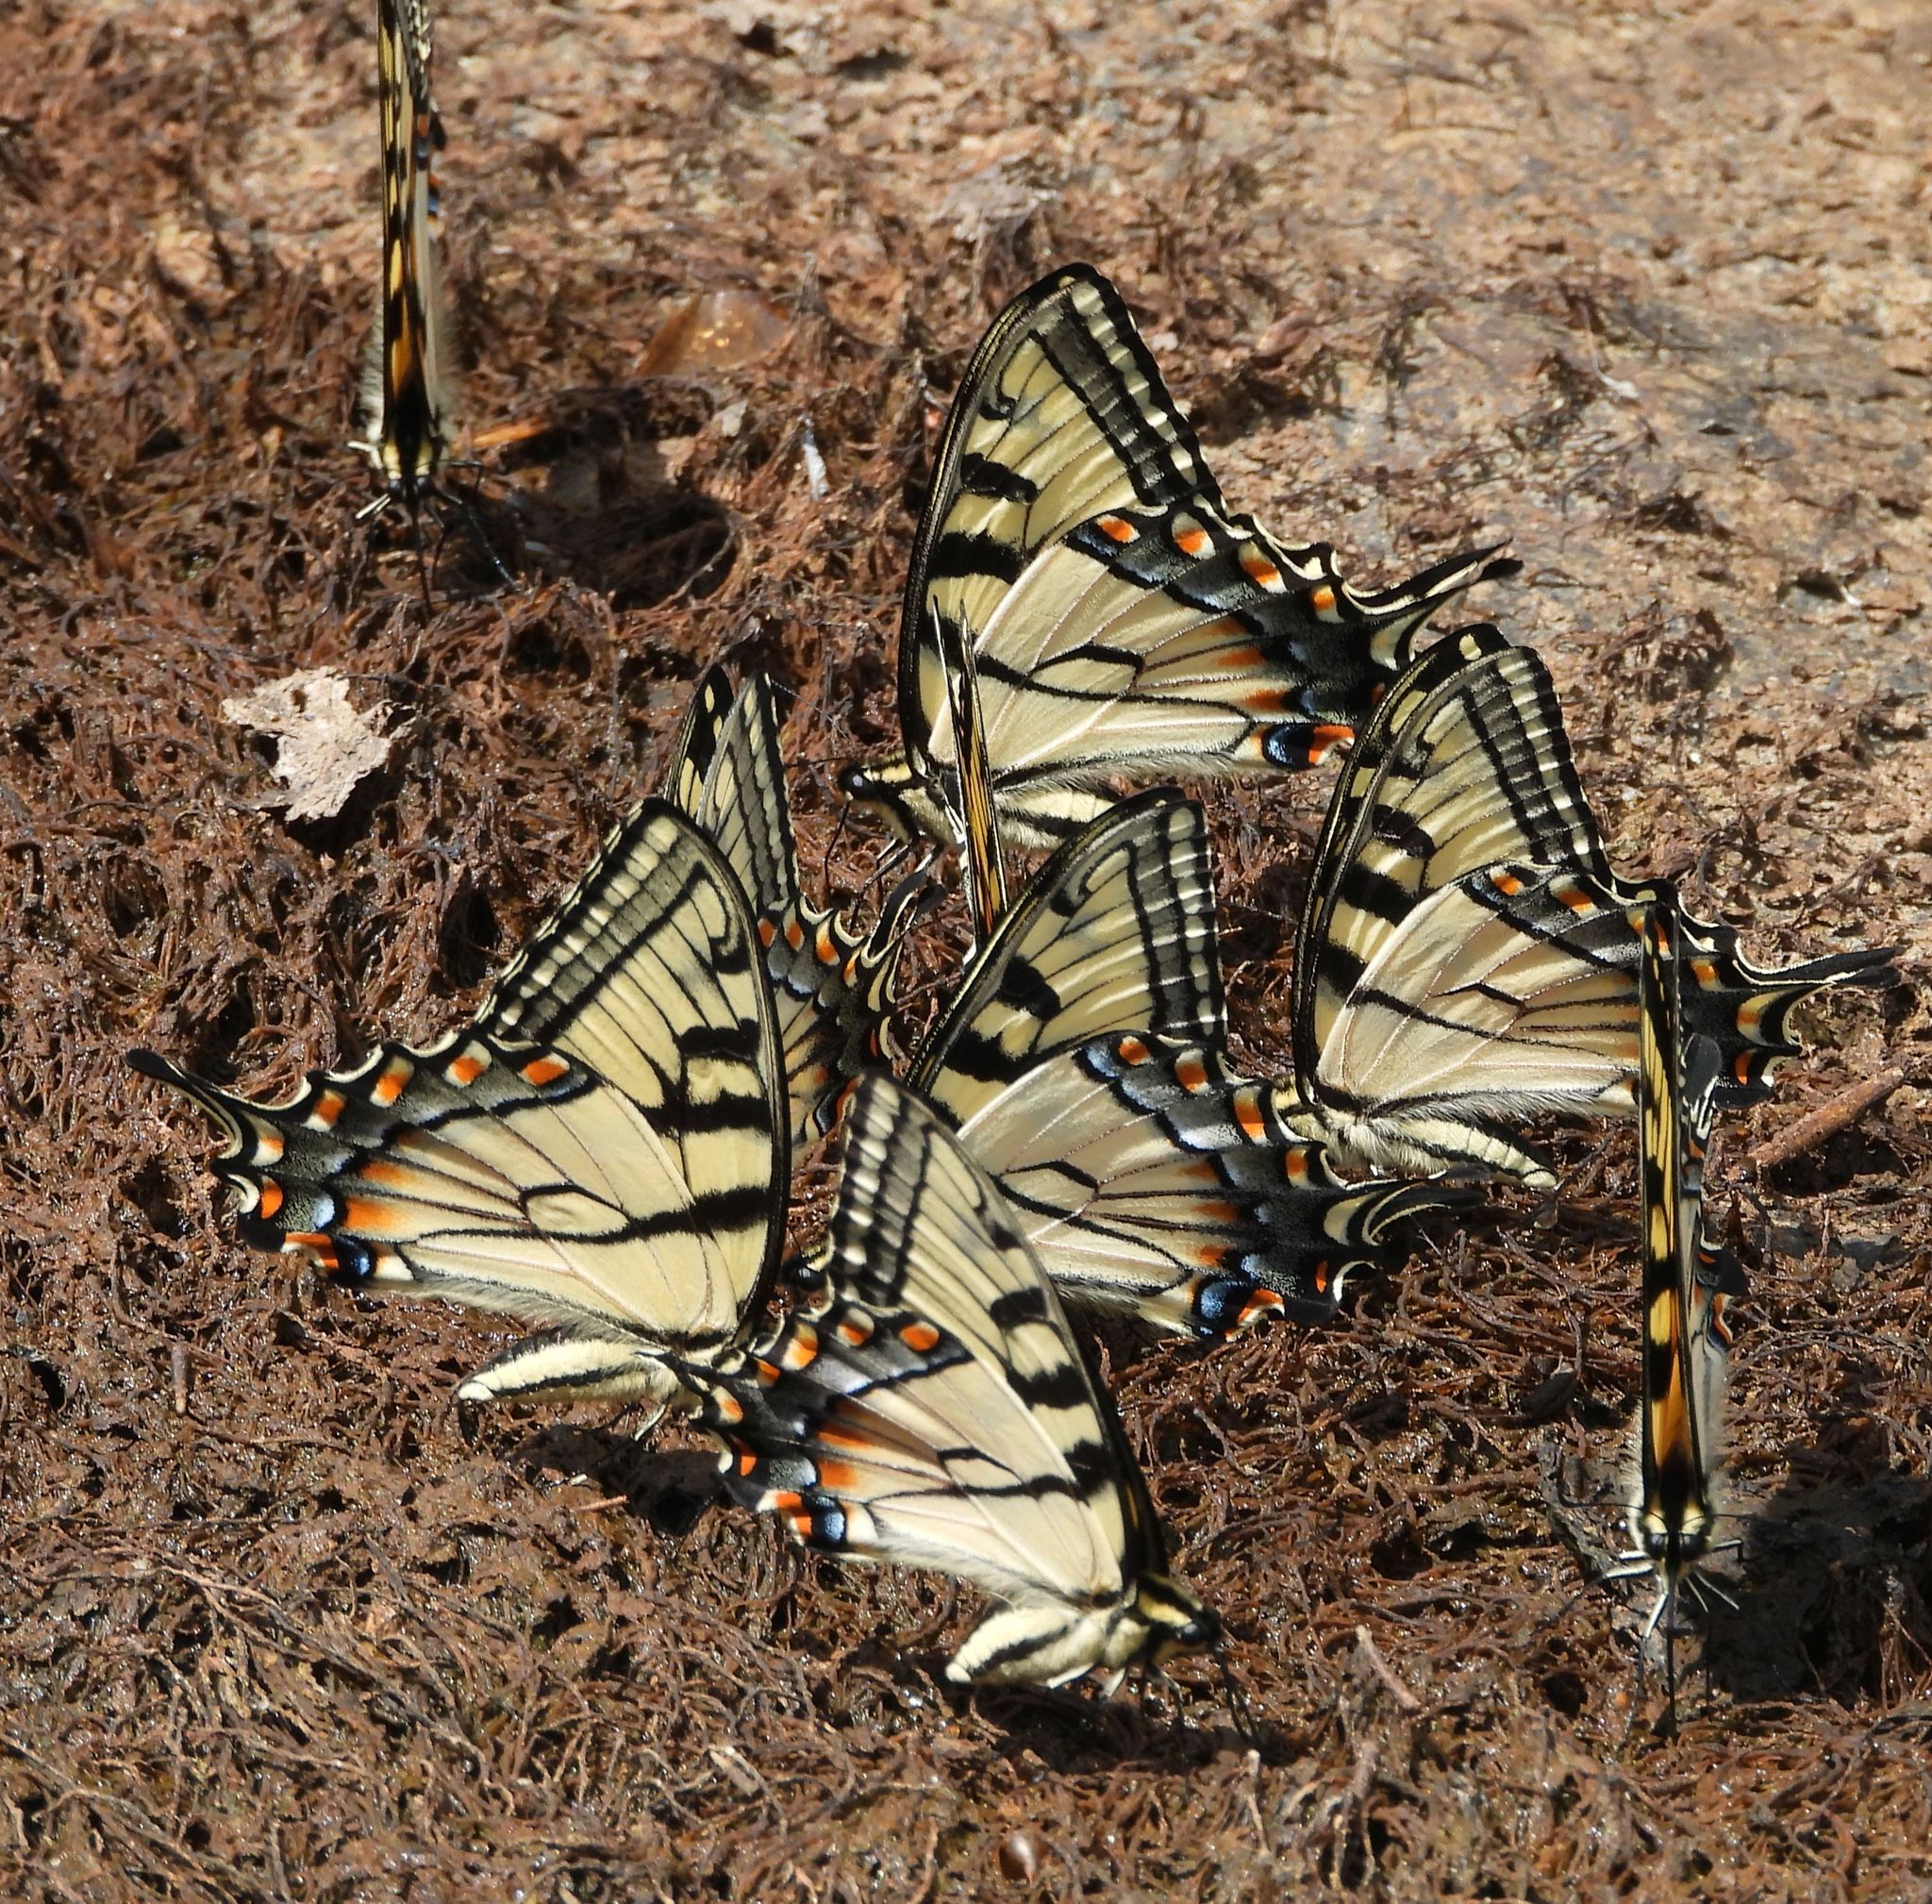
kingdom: Animalia
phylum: Arthropoda
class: Insecta
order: Lepidoptera
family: Papilionidae
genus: Papilio
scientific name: Papilio
